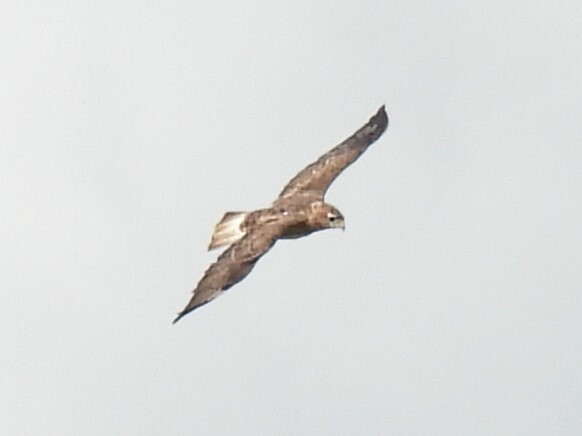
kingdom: Animalia
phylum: Chordata
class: Aves
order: Accipitriformes
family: Accipitridae
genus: Buteo
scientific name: Buteo buteo
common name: Common buzzard
